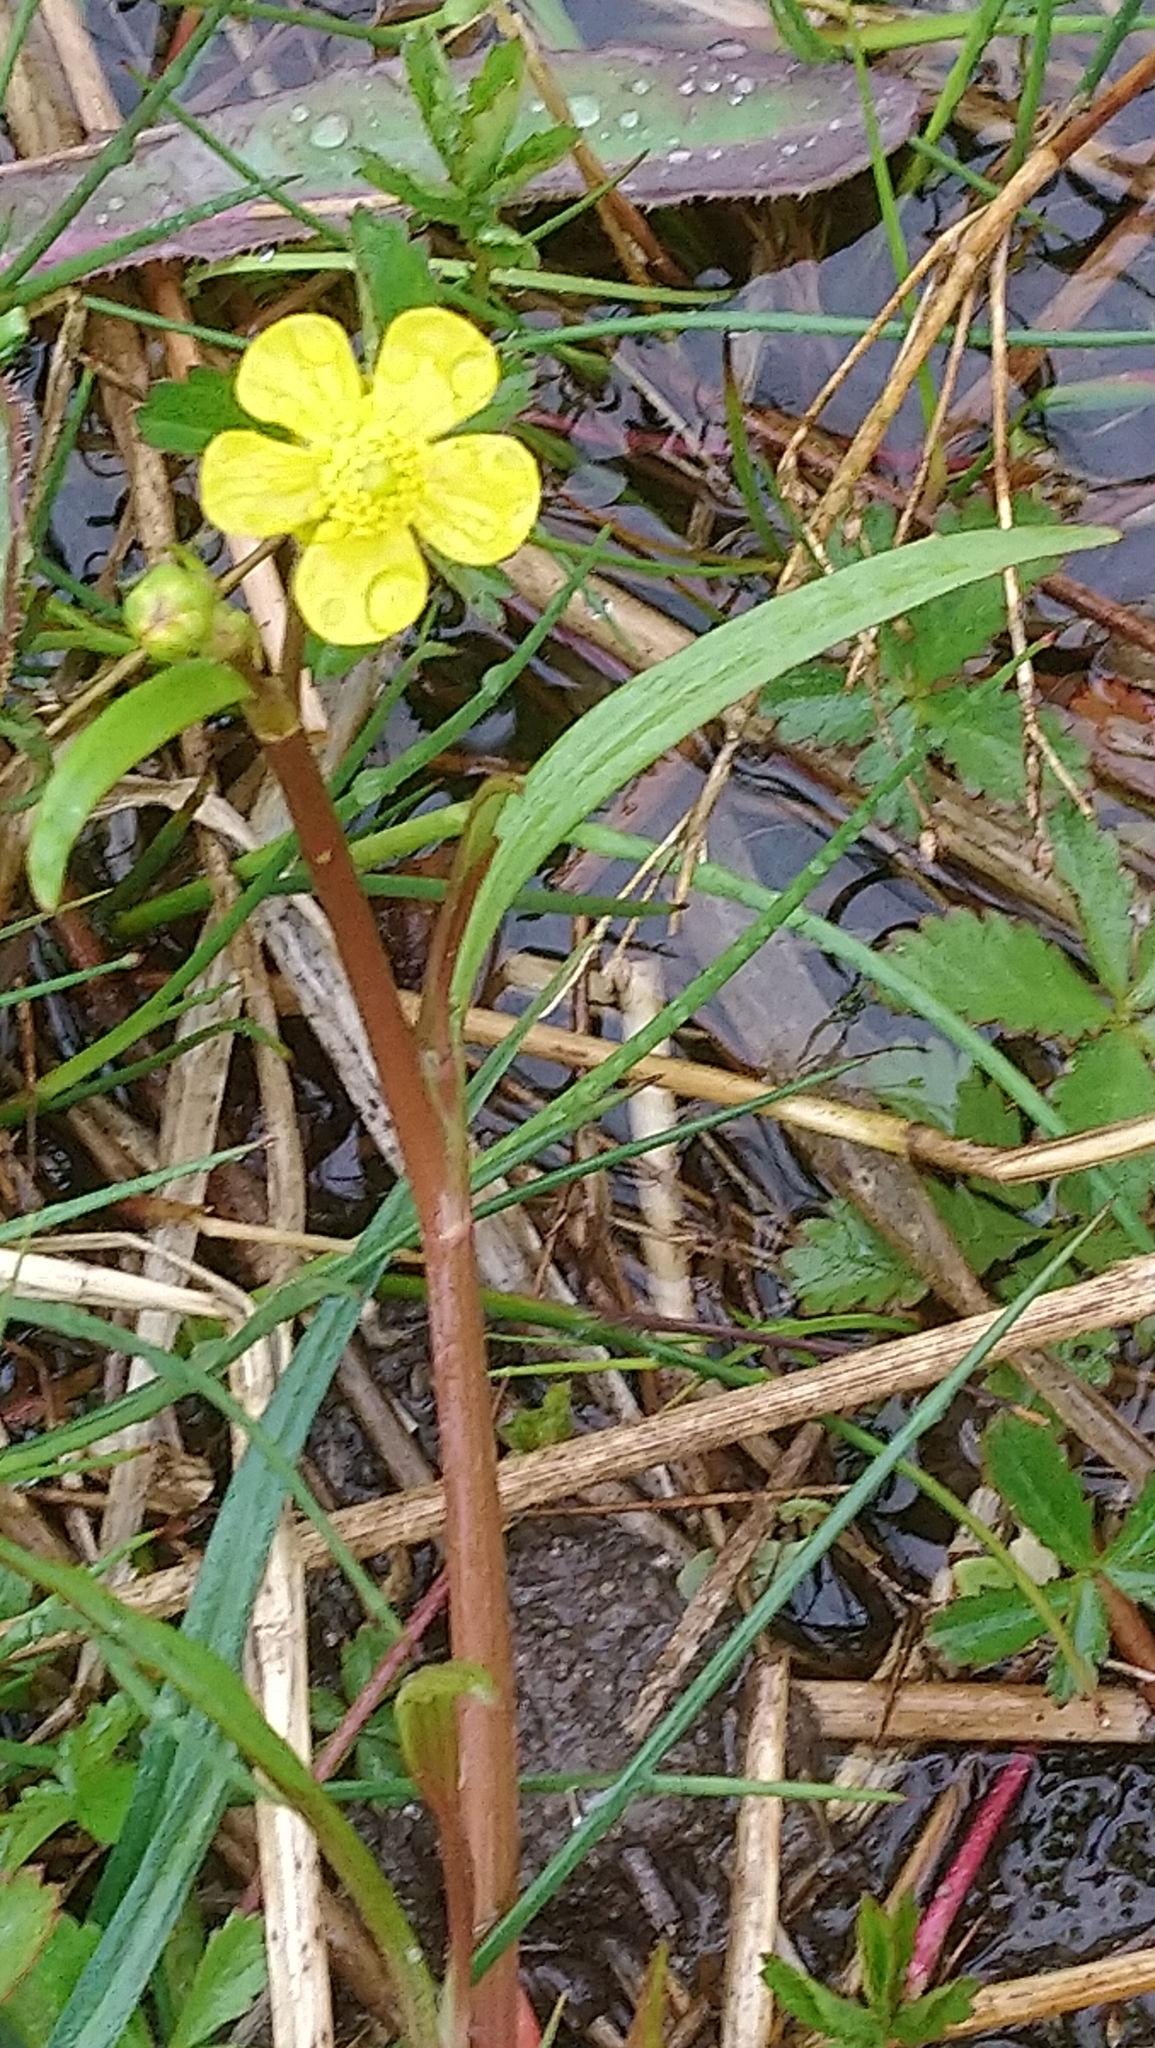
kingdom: Plantae
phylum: Tracheophyta
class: Magnoliopsida
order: Ranunculales
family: Ranunculaceae
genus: Ranunculus
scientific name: Ranunculus flammula
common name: Lesser spearwort
